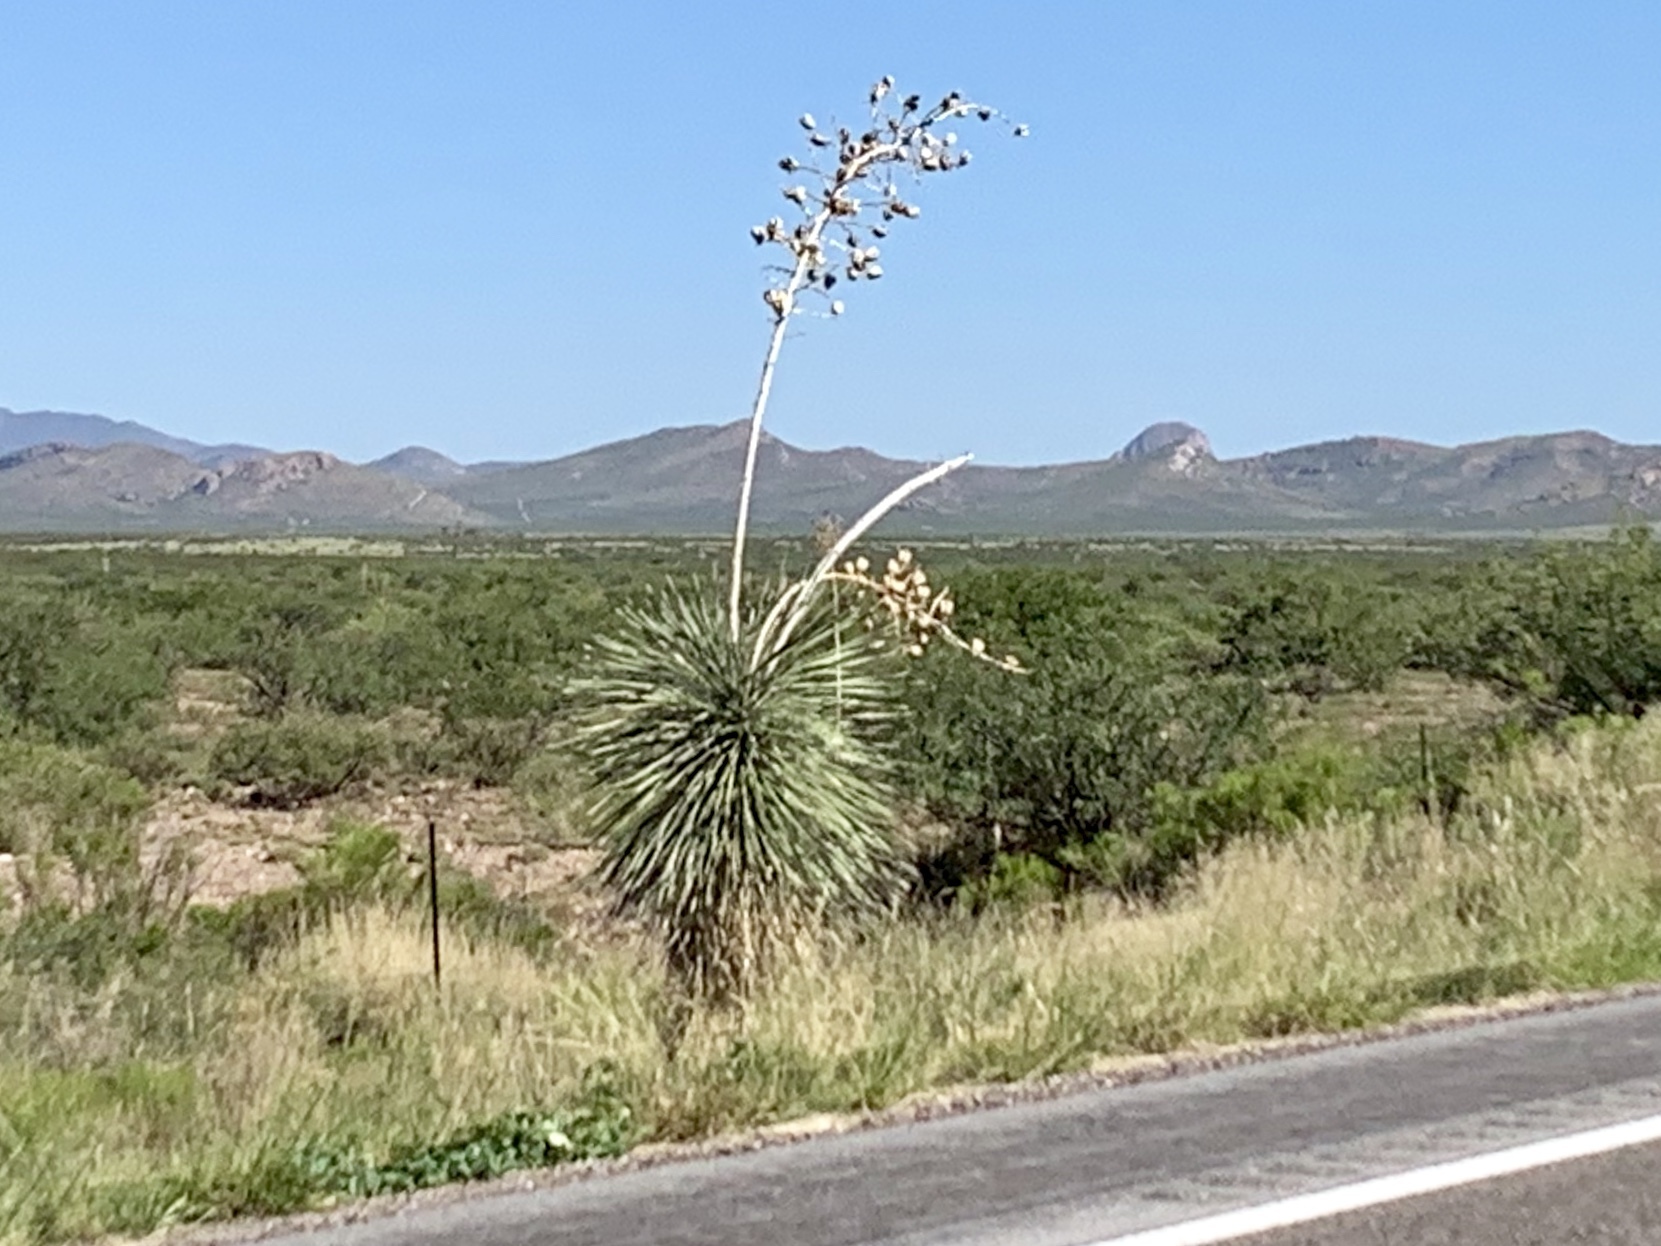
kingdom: Plantae
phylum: Tracheophyta
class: Liliopsida
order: Asparagales
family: Asparagaceae
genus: Yucca
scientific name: Yucca elata
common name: Palmella
